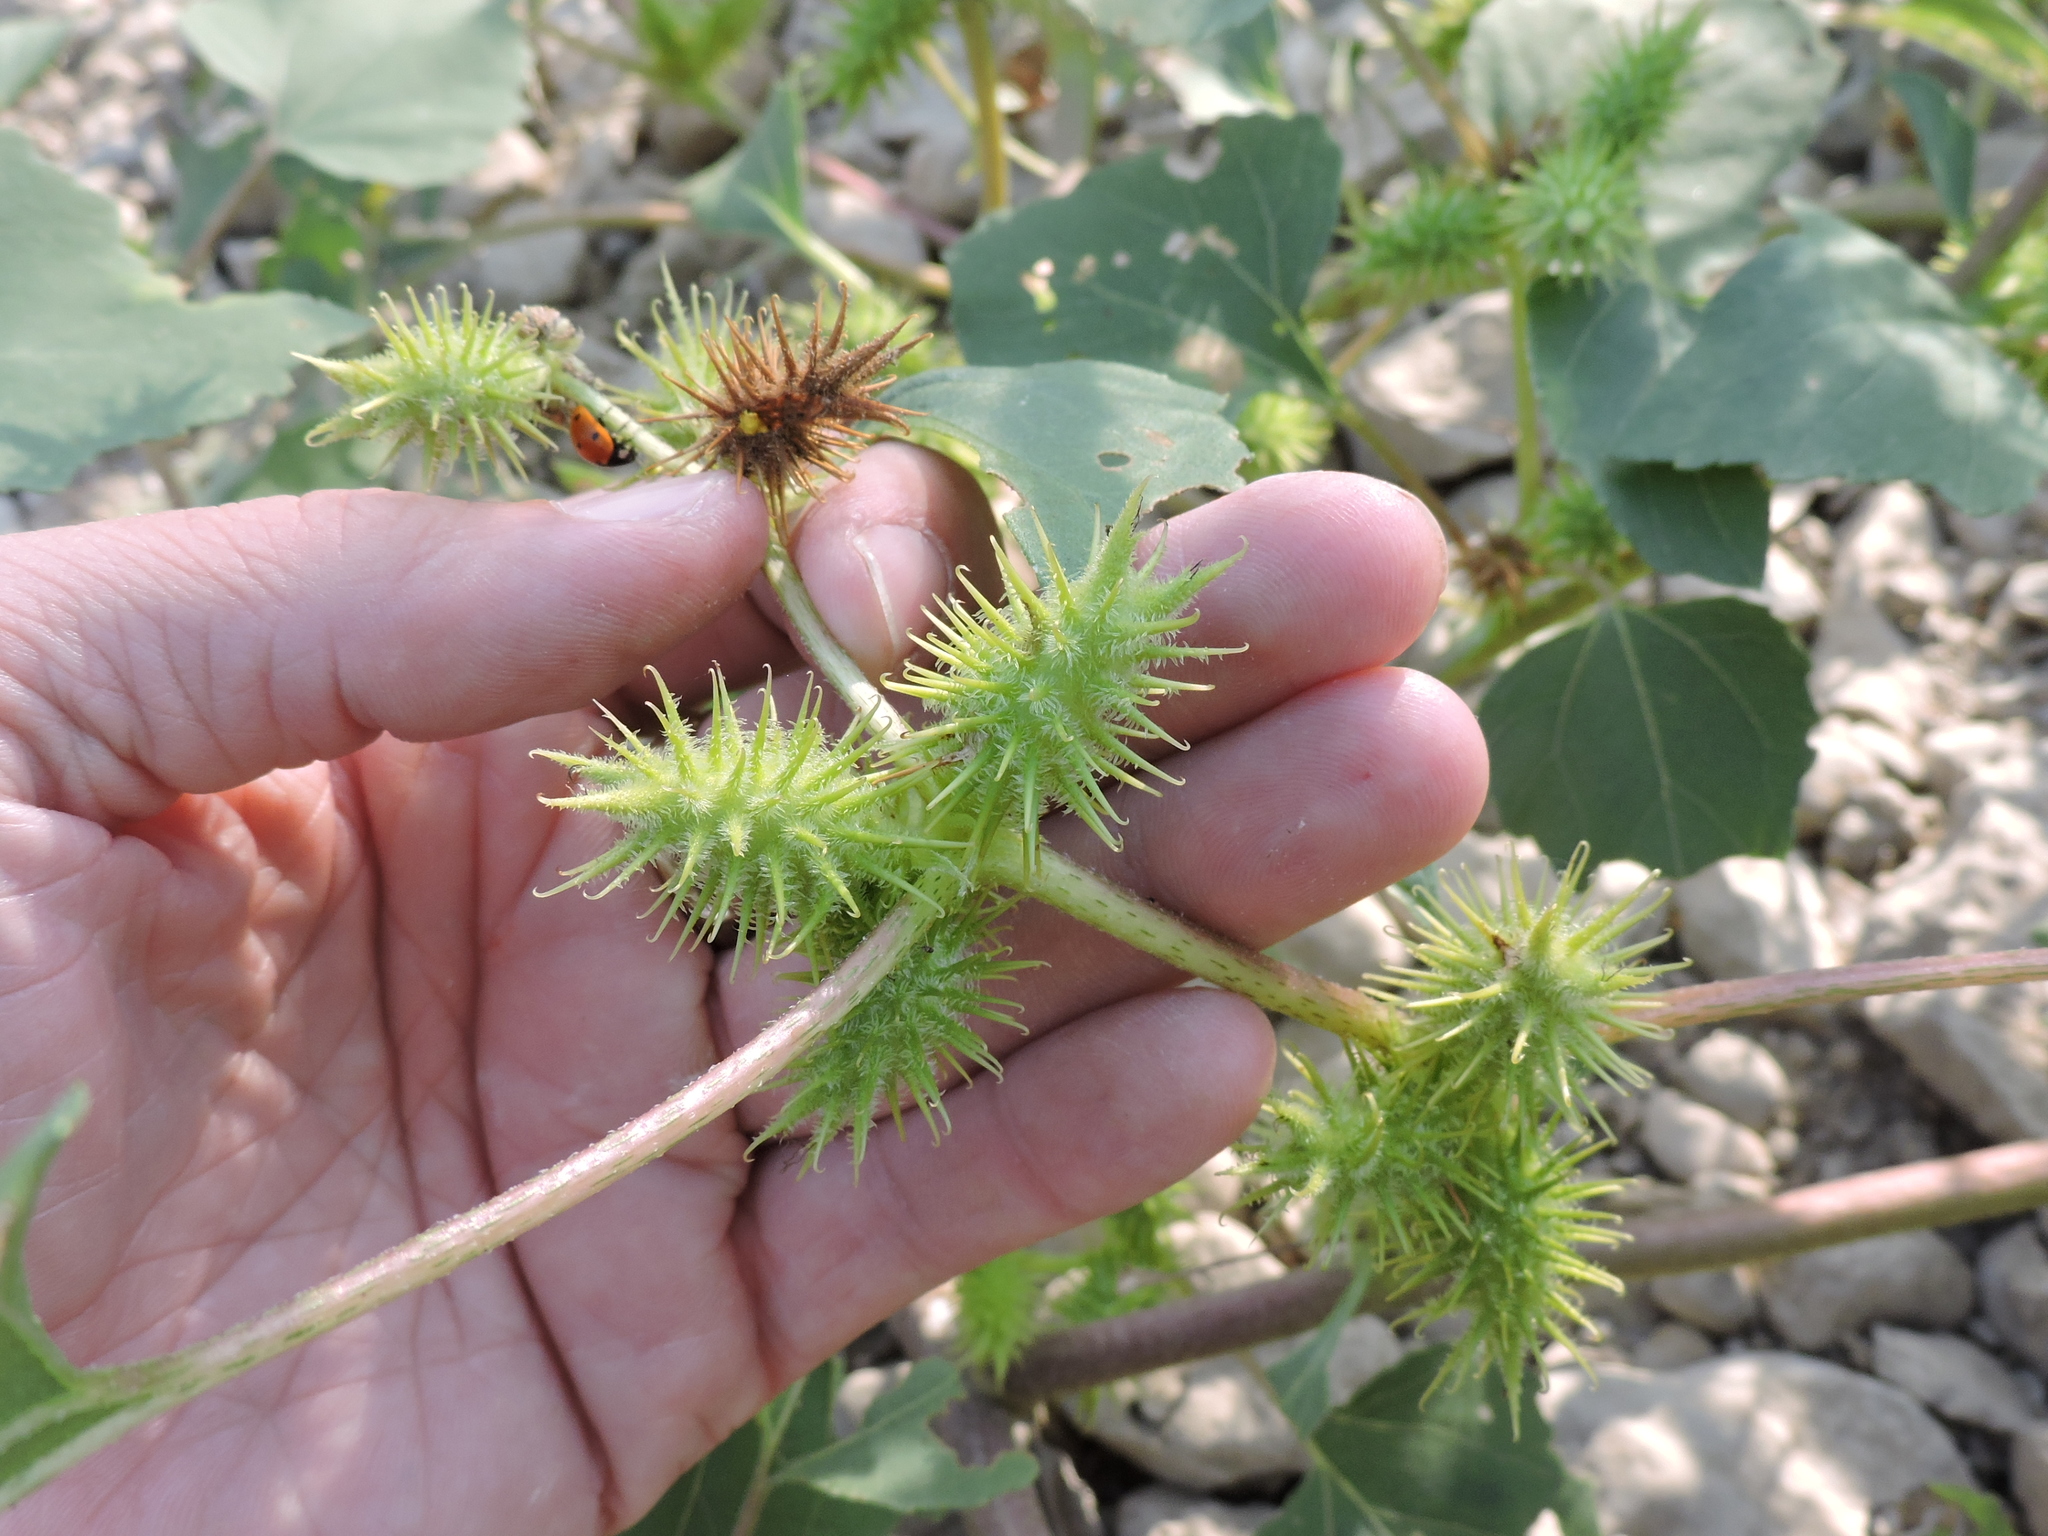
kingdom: Plantae
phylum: Tracheophyta
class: Magnoliopsida
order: Asterales
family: Asteraceae
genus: Xanthium
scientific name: Xanthium strumarium
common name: Rough cocklebur
